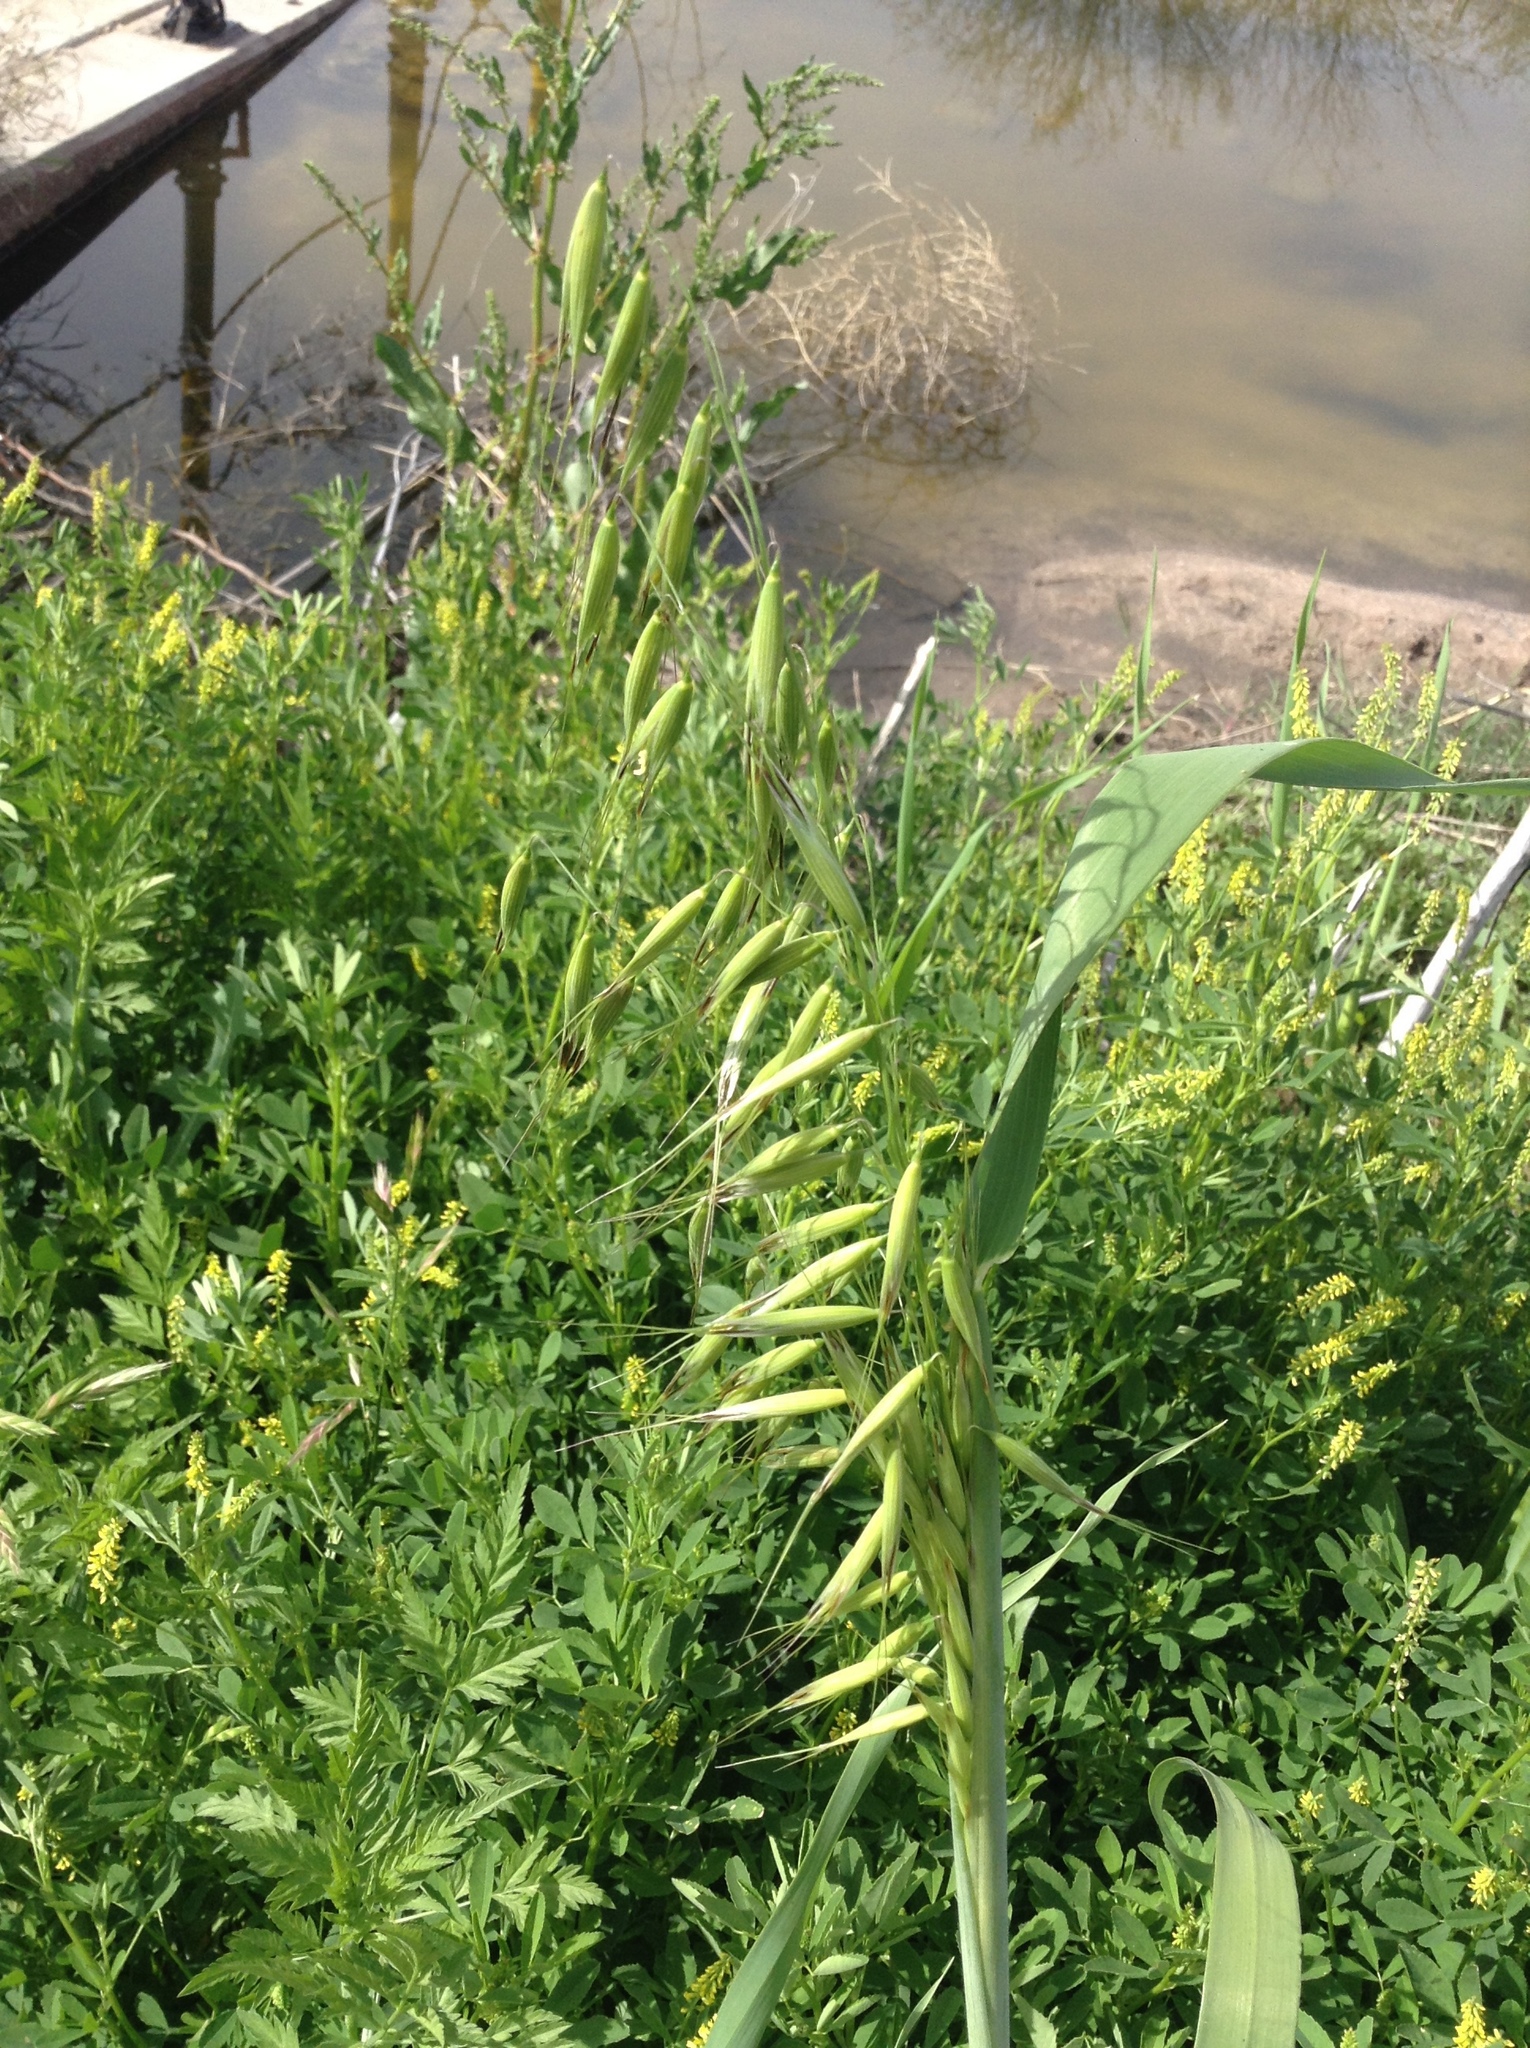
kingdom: Plantae
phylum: Tracheophyta
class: Liliopsida
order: Poales
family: Poaceae
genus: Avena
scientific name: Avena fatua
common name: Wild oat
